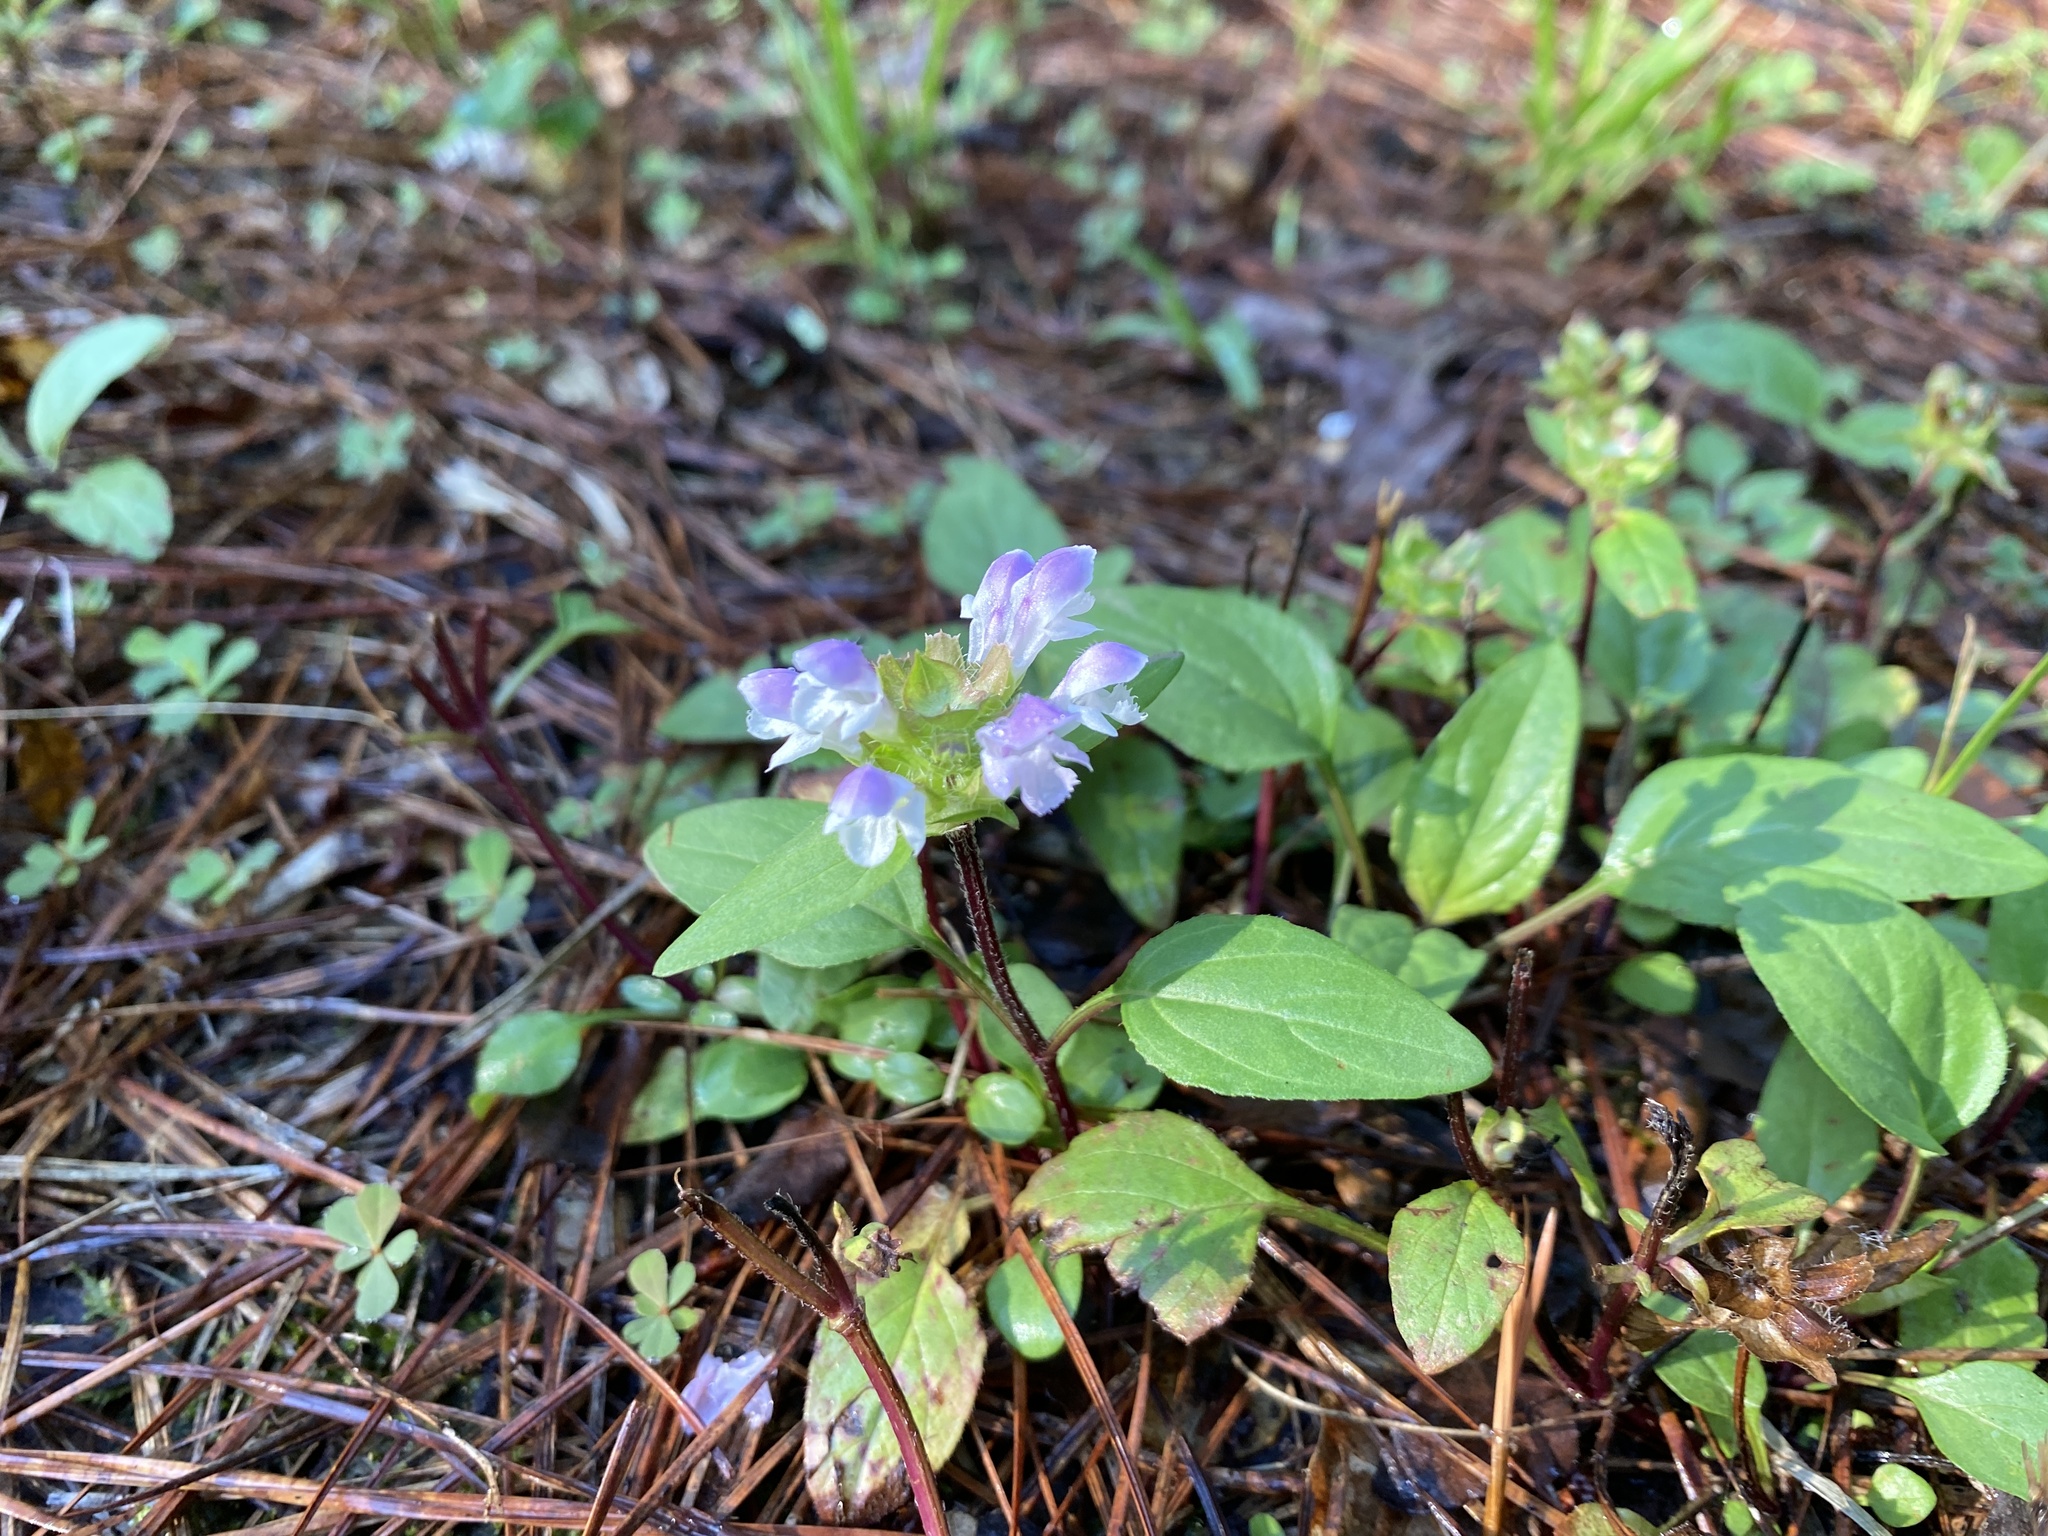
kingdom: Plantae
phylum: Tracheophyta
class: Magnoliopsida
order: Lamiales
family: Lamiaceae
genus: Prunella
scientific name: Prunella vulgaris
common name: Heal-all
